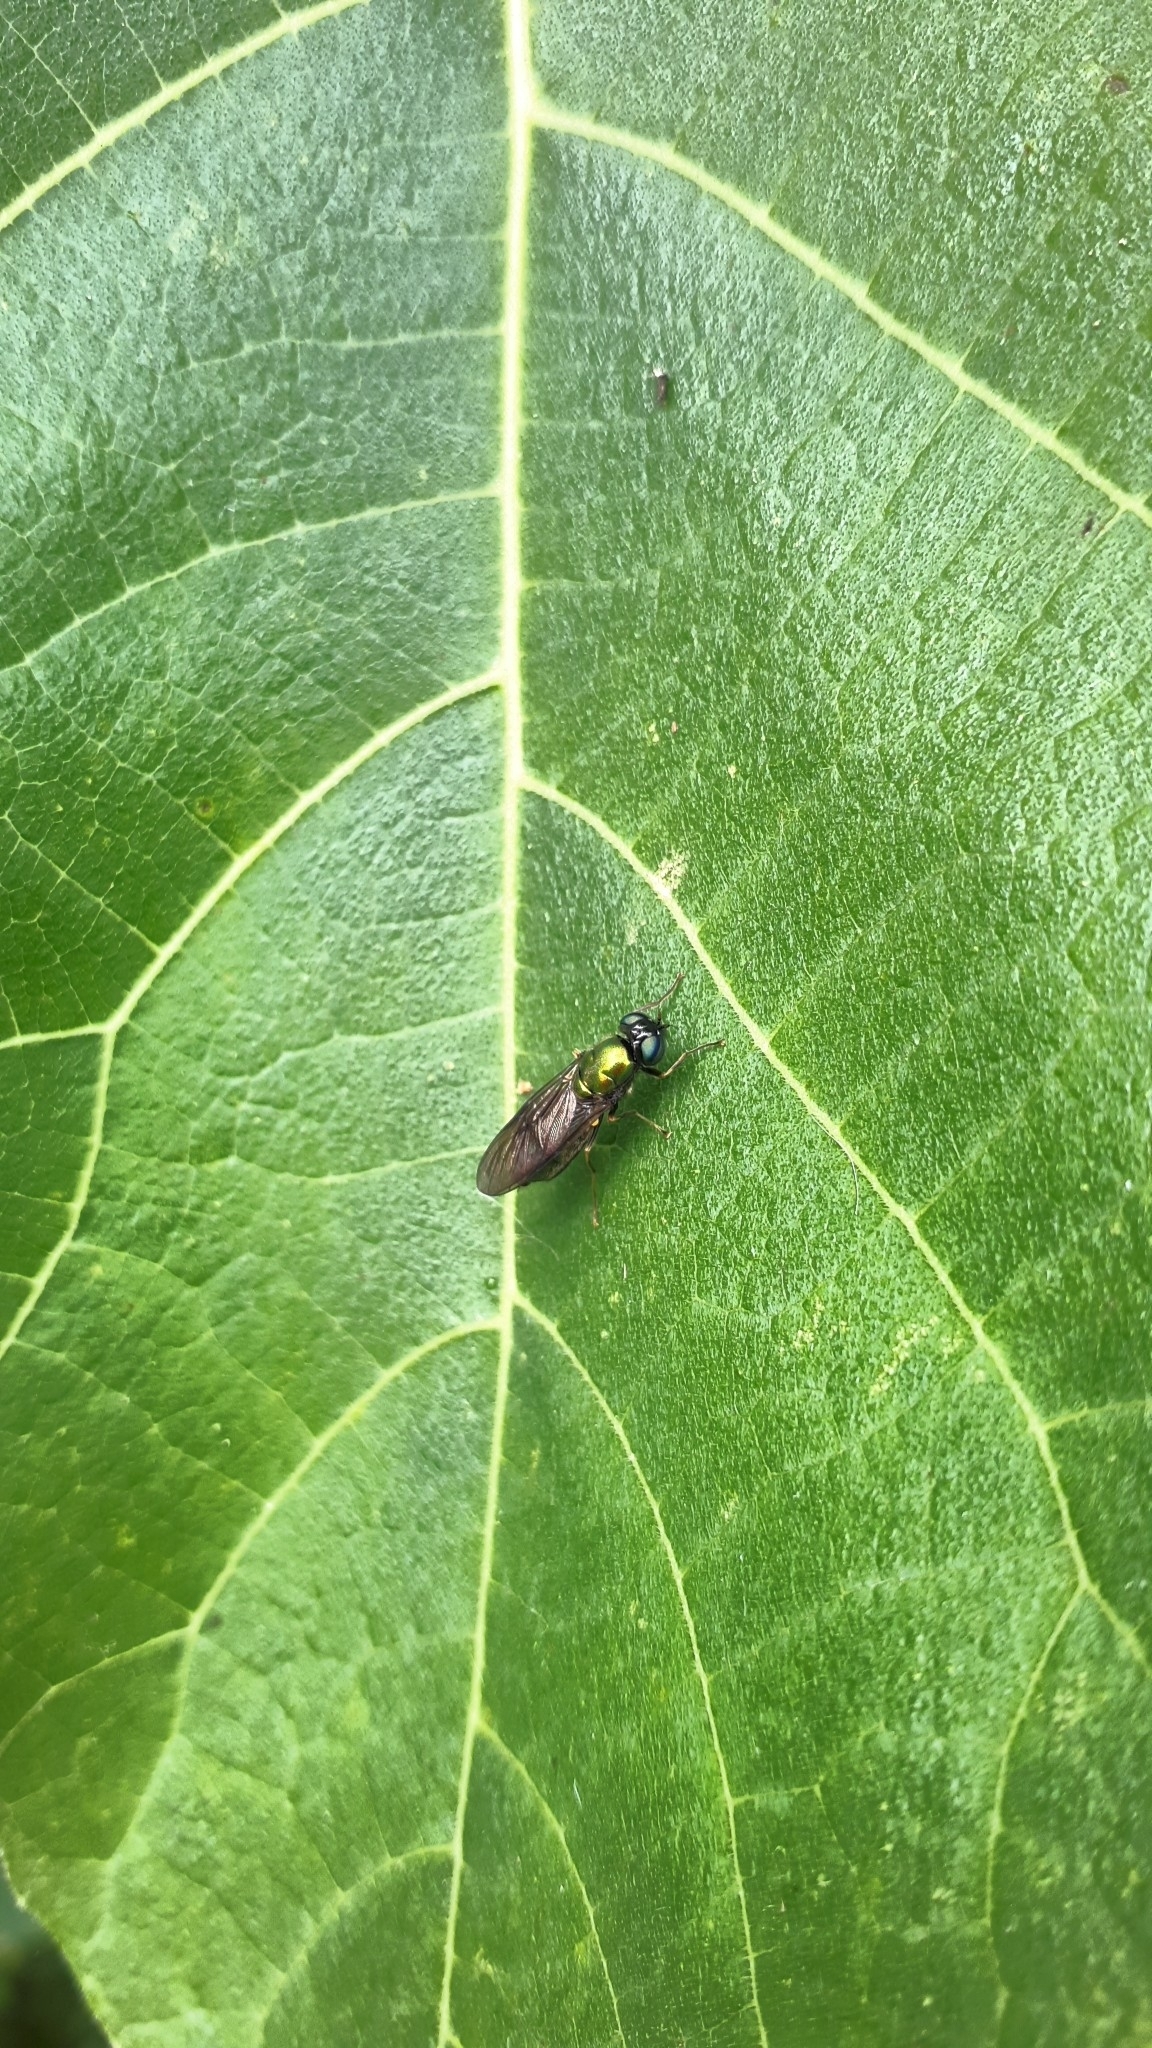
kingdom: Animalia
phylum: Arthropoda
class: Insecta
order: Diptera
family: Stratiomyidae
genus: Chloromyia
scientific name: Chloromyia formosa
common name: Soldier fly
